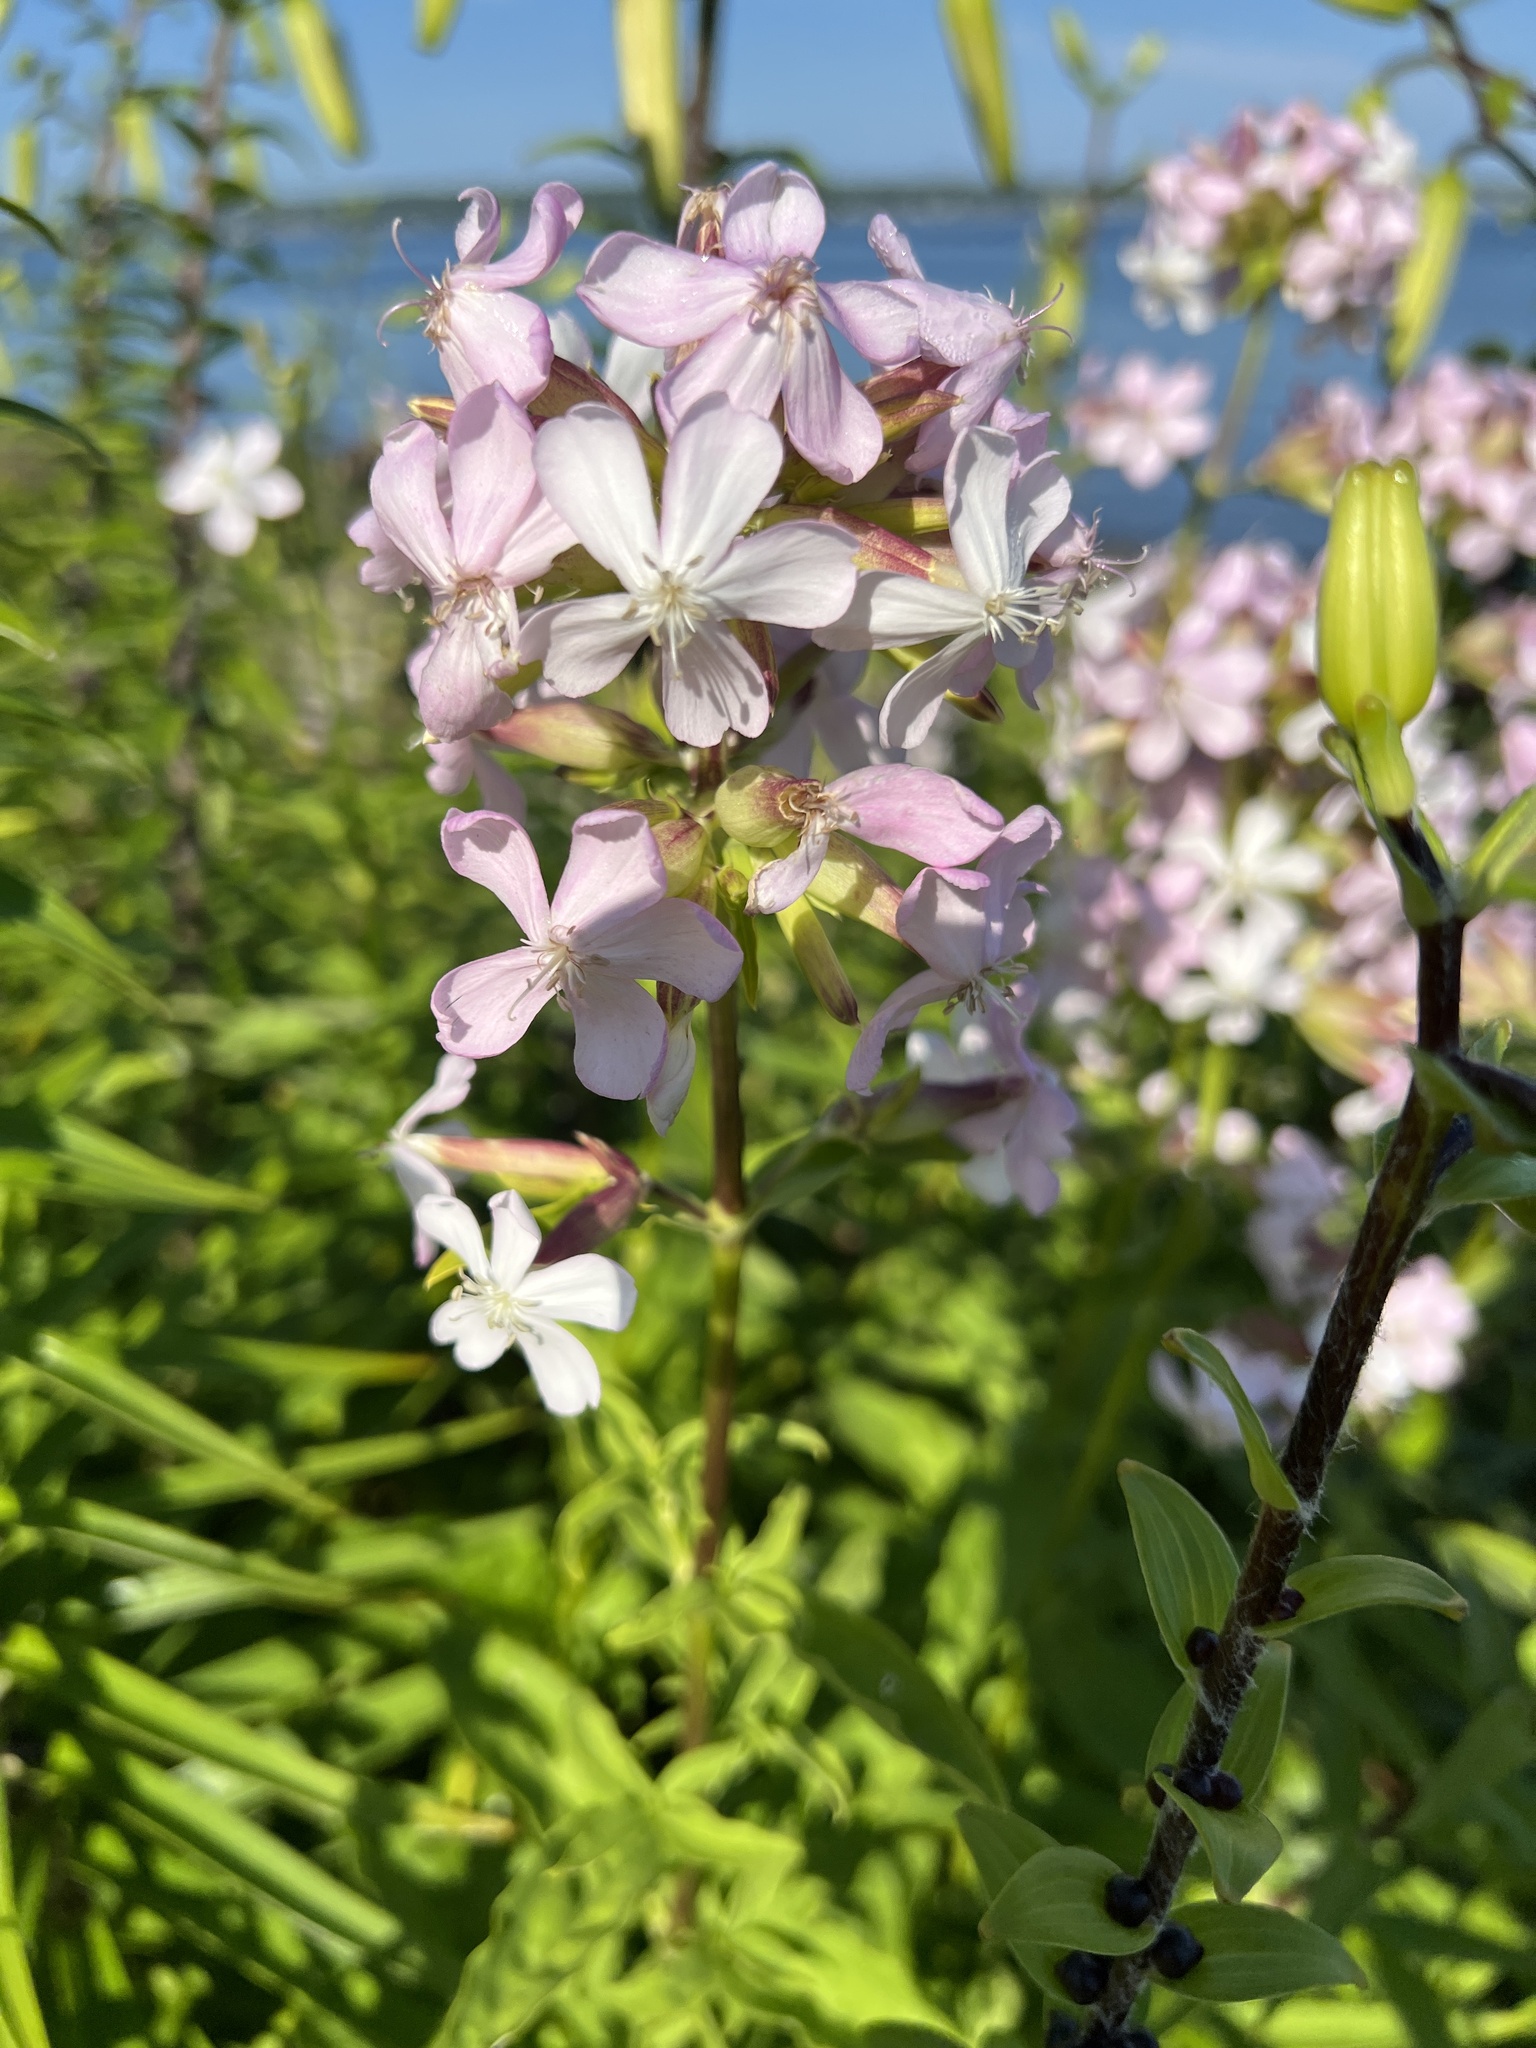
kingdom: Plantae
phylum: Tracheophyta
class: Magnoliopsida
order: Caryophyllales
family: Caryophyllaceae
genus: Saponaria
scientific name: Saponaria officinalis
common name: Soapwort
